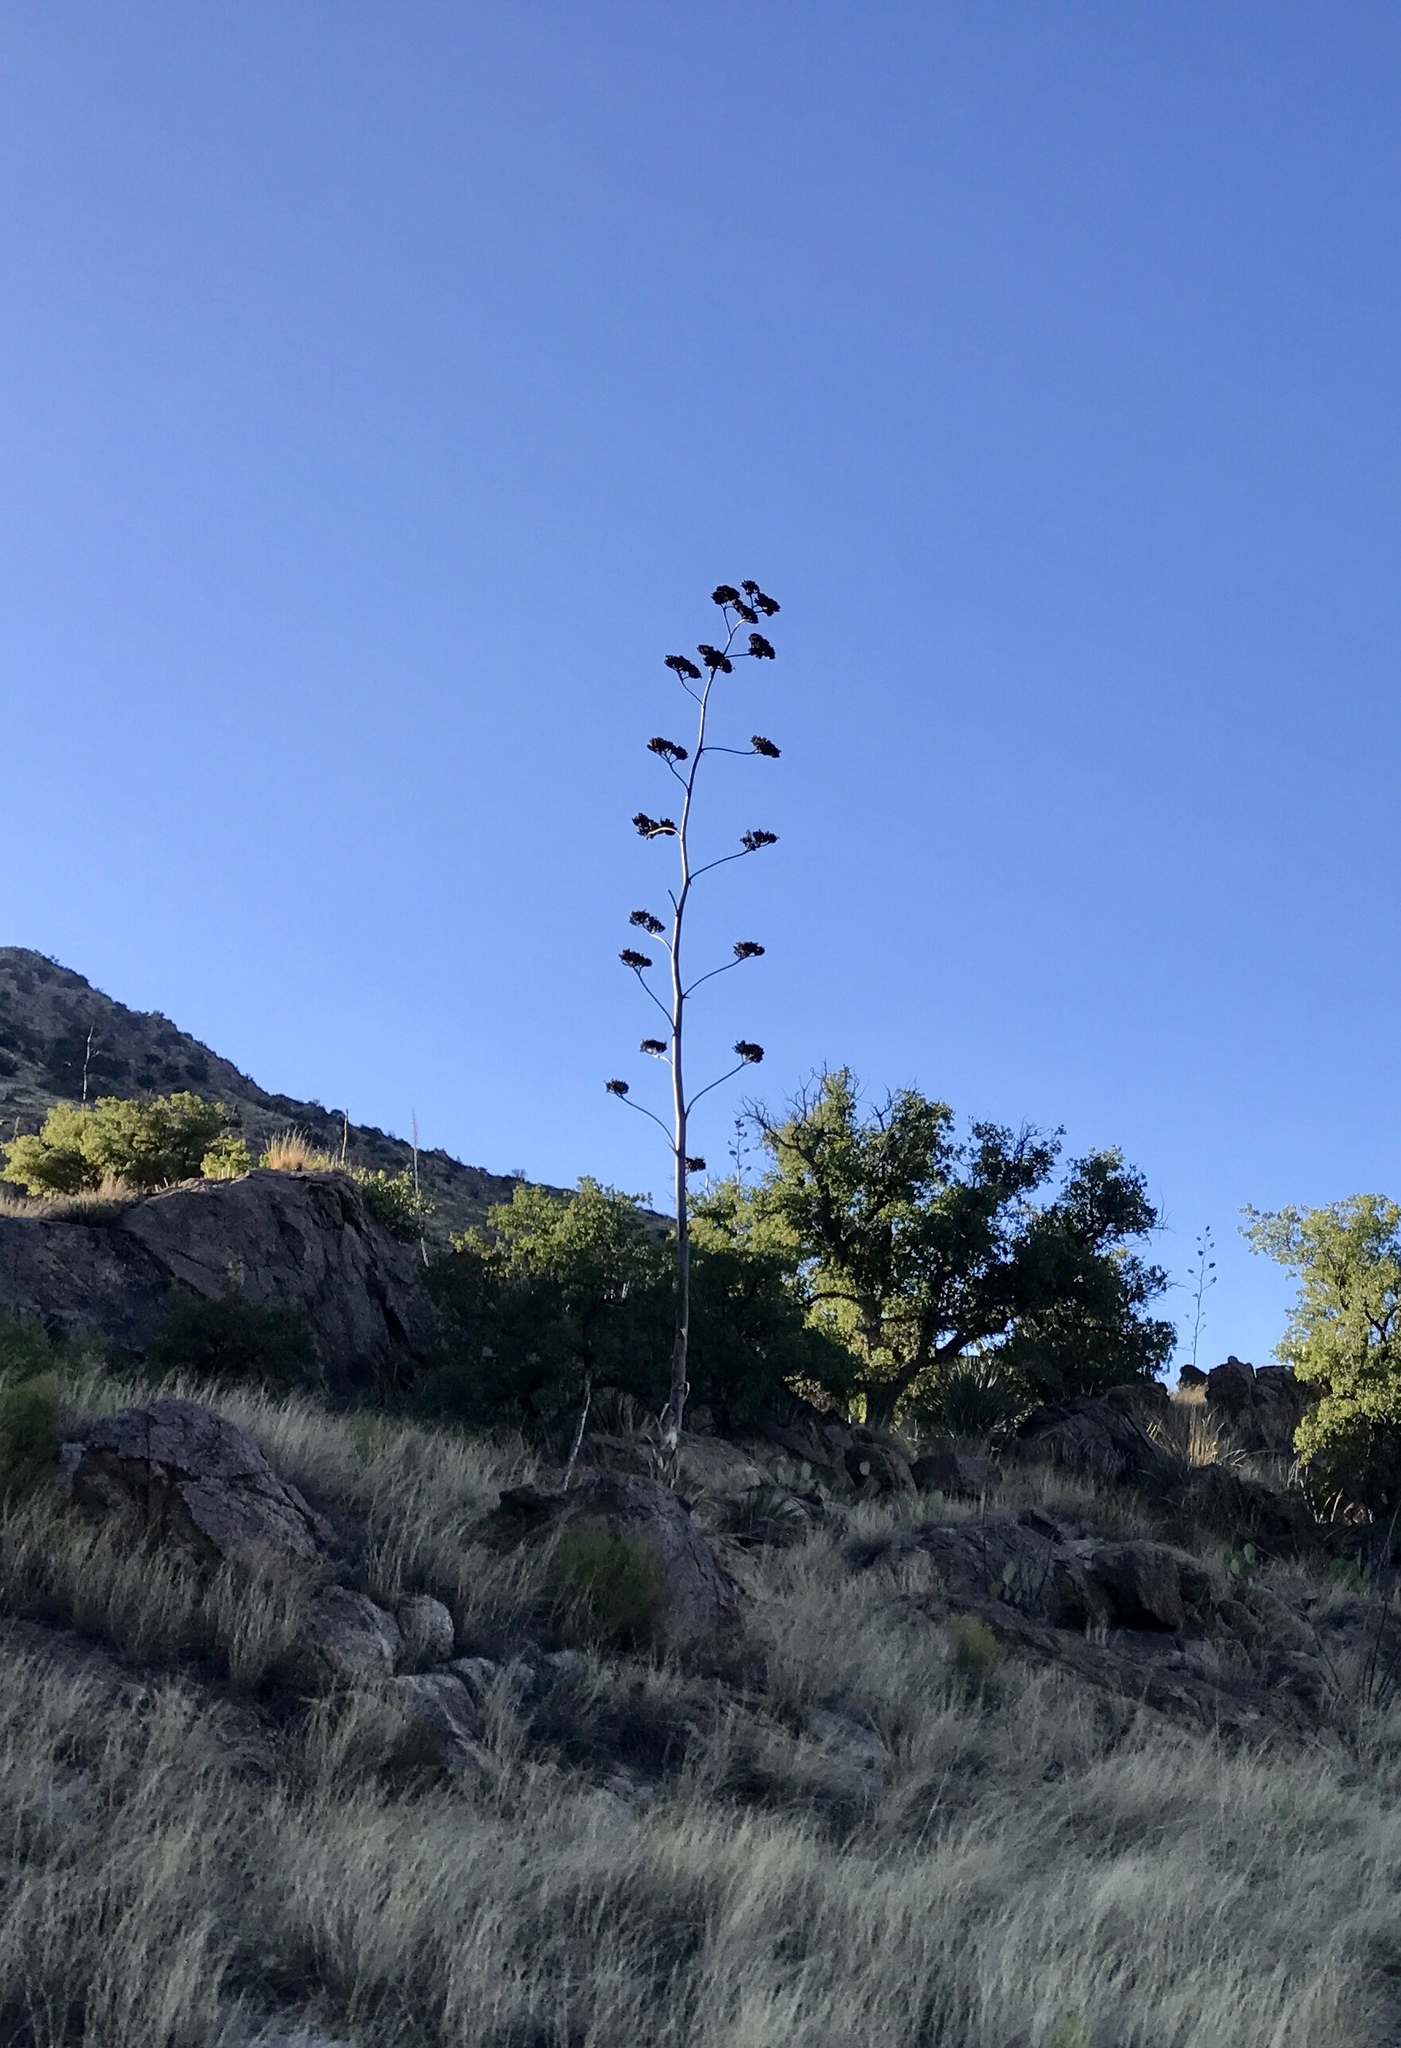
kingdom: Plantae
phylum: Tracheophyta
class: Liliopsida
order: Asparagales
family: Asparagaceae
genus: Agave
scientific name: Agave palmeri
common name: Palmer agave
